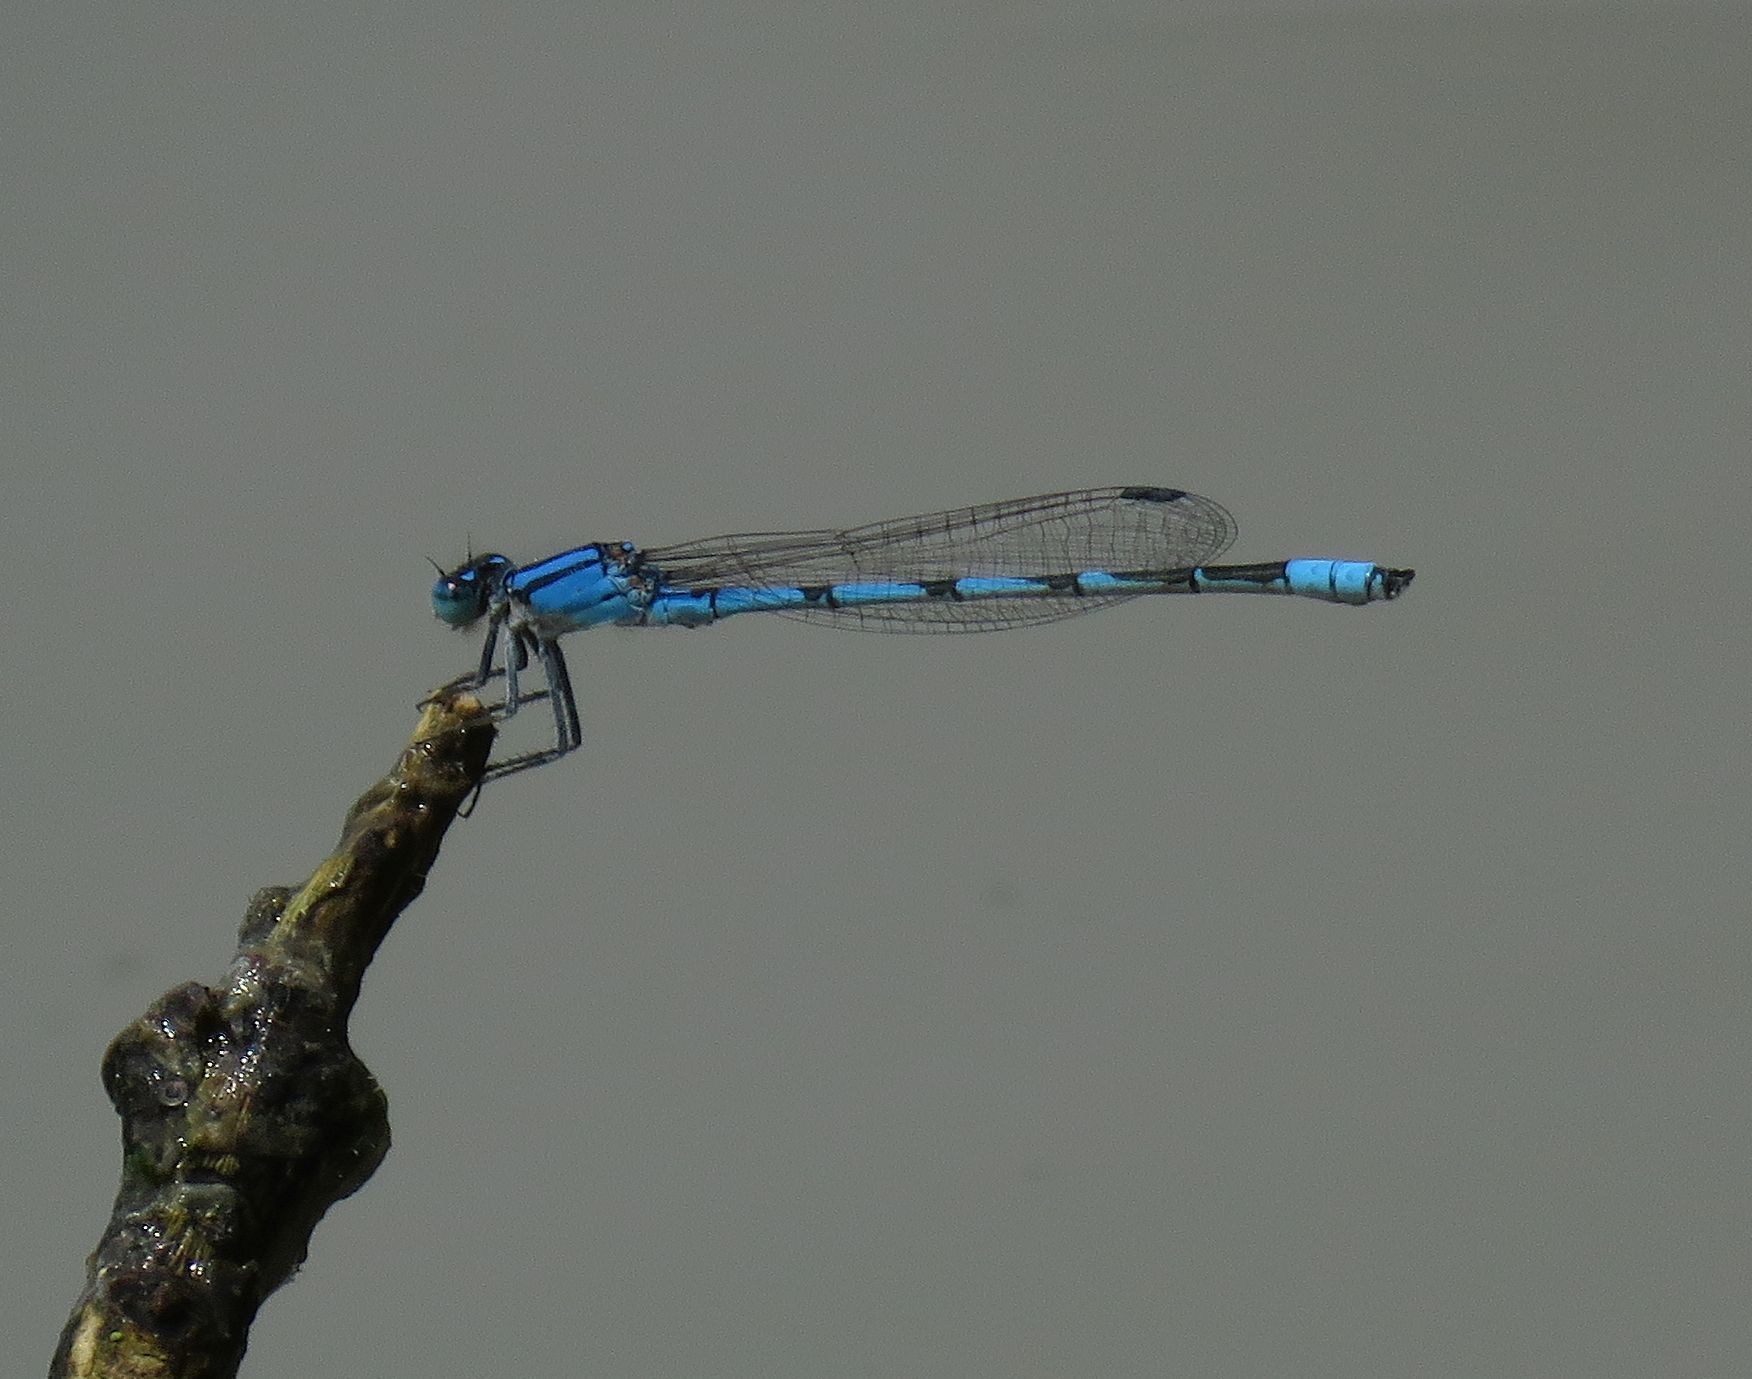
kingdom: Animalia
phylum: Arthropoda
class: Insecta
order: Odonata
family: Coenagrionidae
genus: Enallagma
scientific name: Enallagma civile
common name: Damselfly
